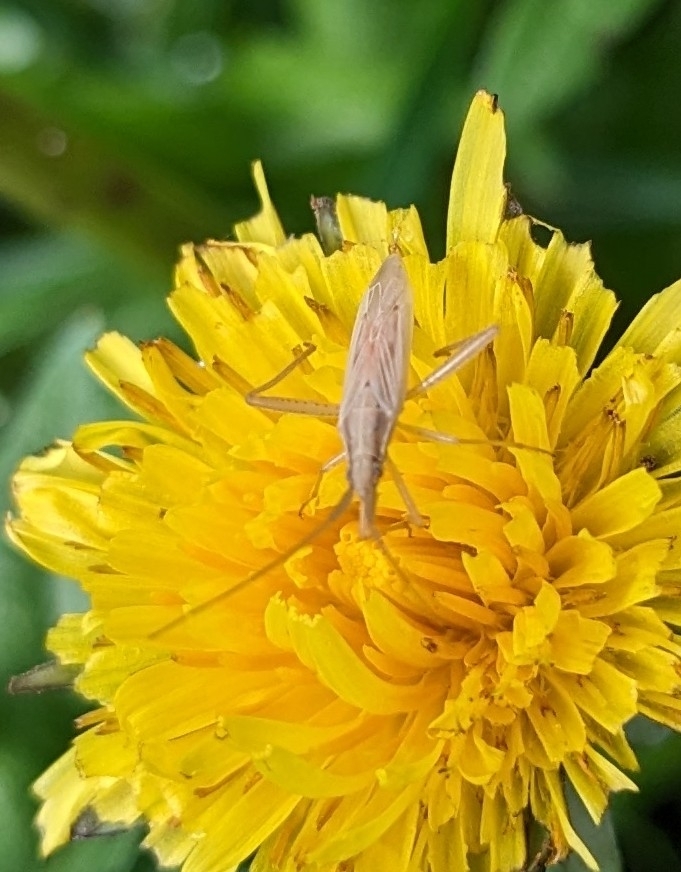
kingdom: Animalia
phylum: Arthropoda
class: Insecta
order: Hemiptera
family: Miridae
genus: Stenodema
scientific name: Stenodema laevigata
